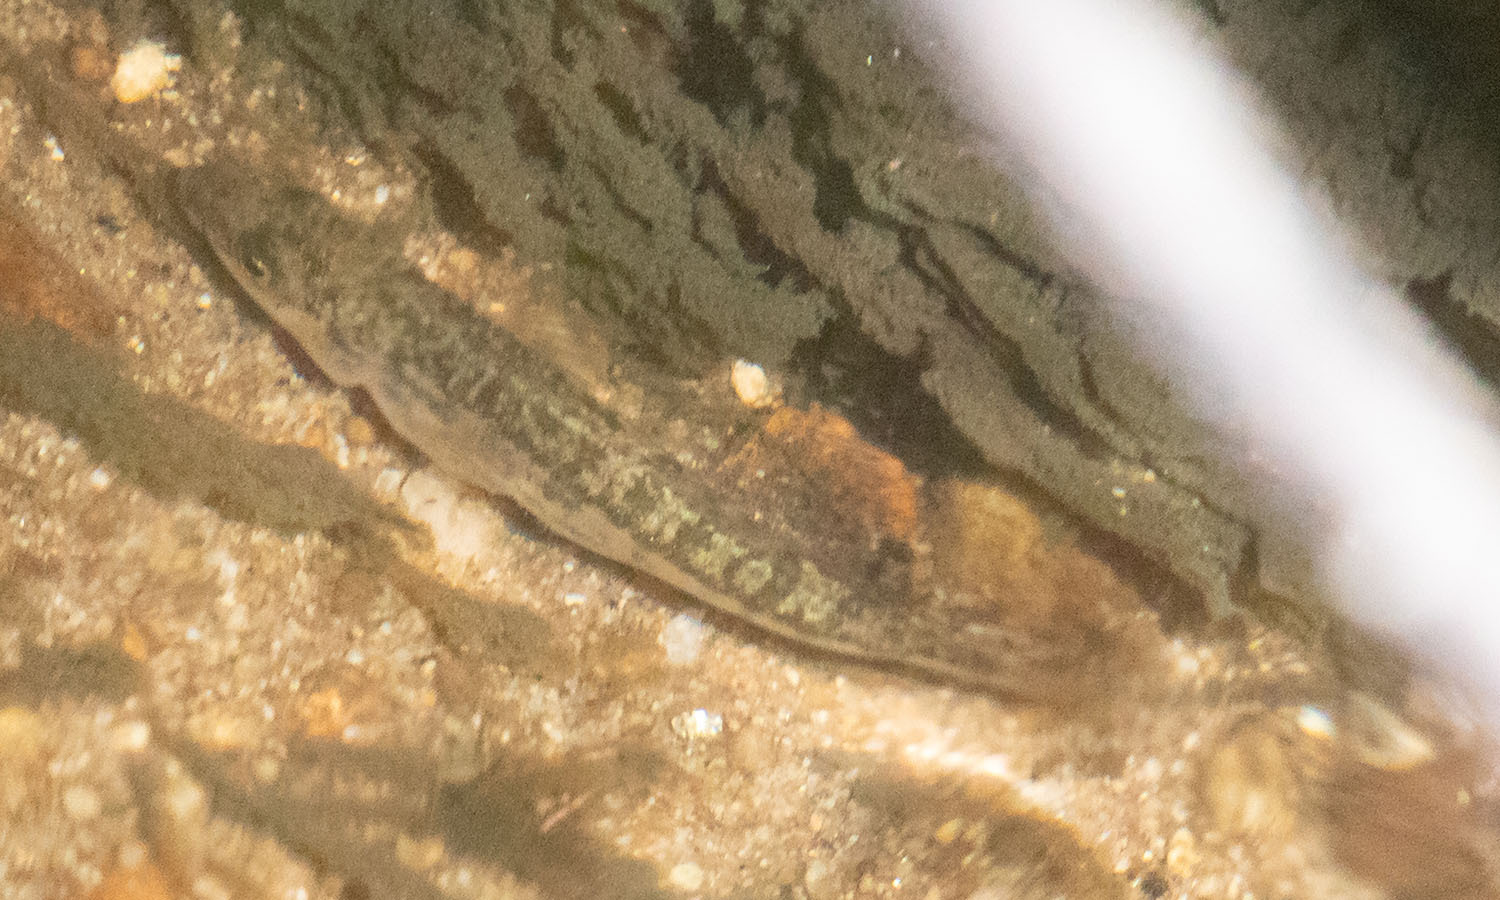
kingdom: Animalia
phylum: Chordata
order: Gasterosteiformes
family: Gasterosteidae
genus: Gasterosteus
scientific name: Gasterosteus aculeatus
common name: Three-spined stickleback
